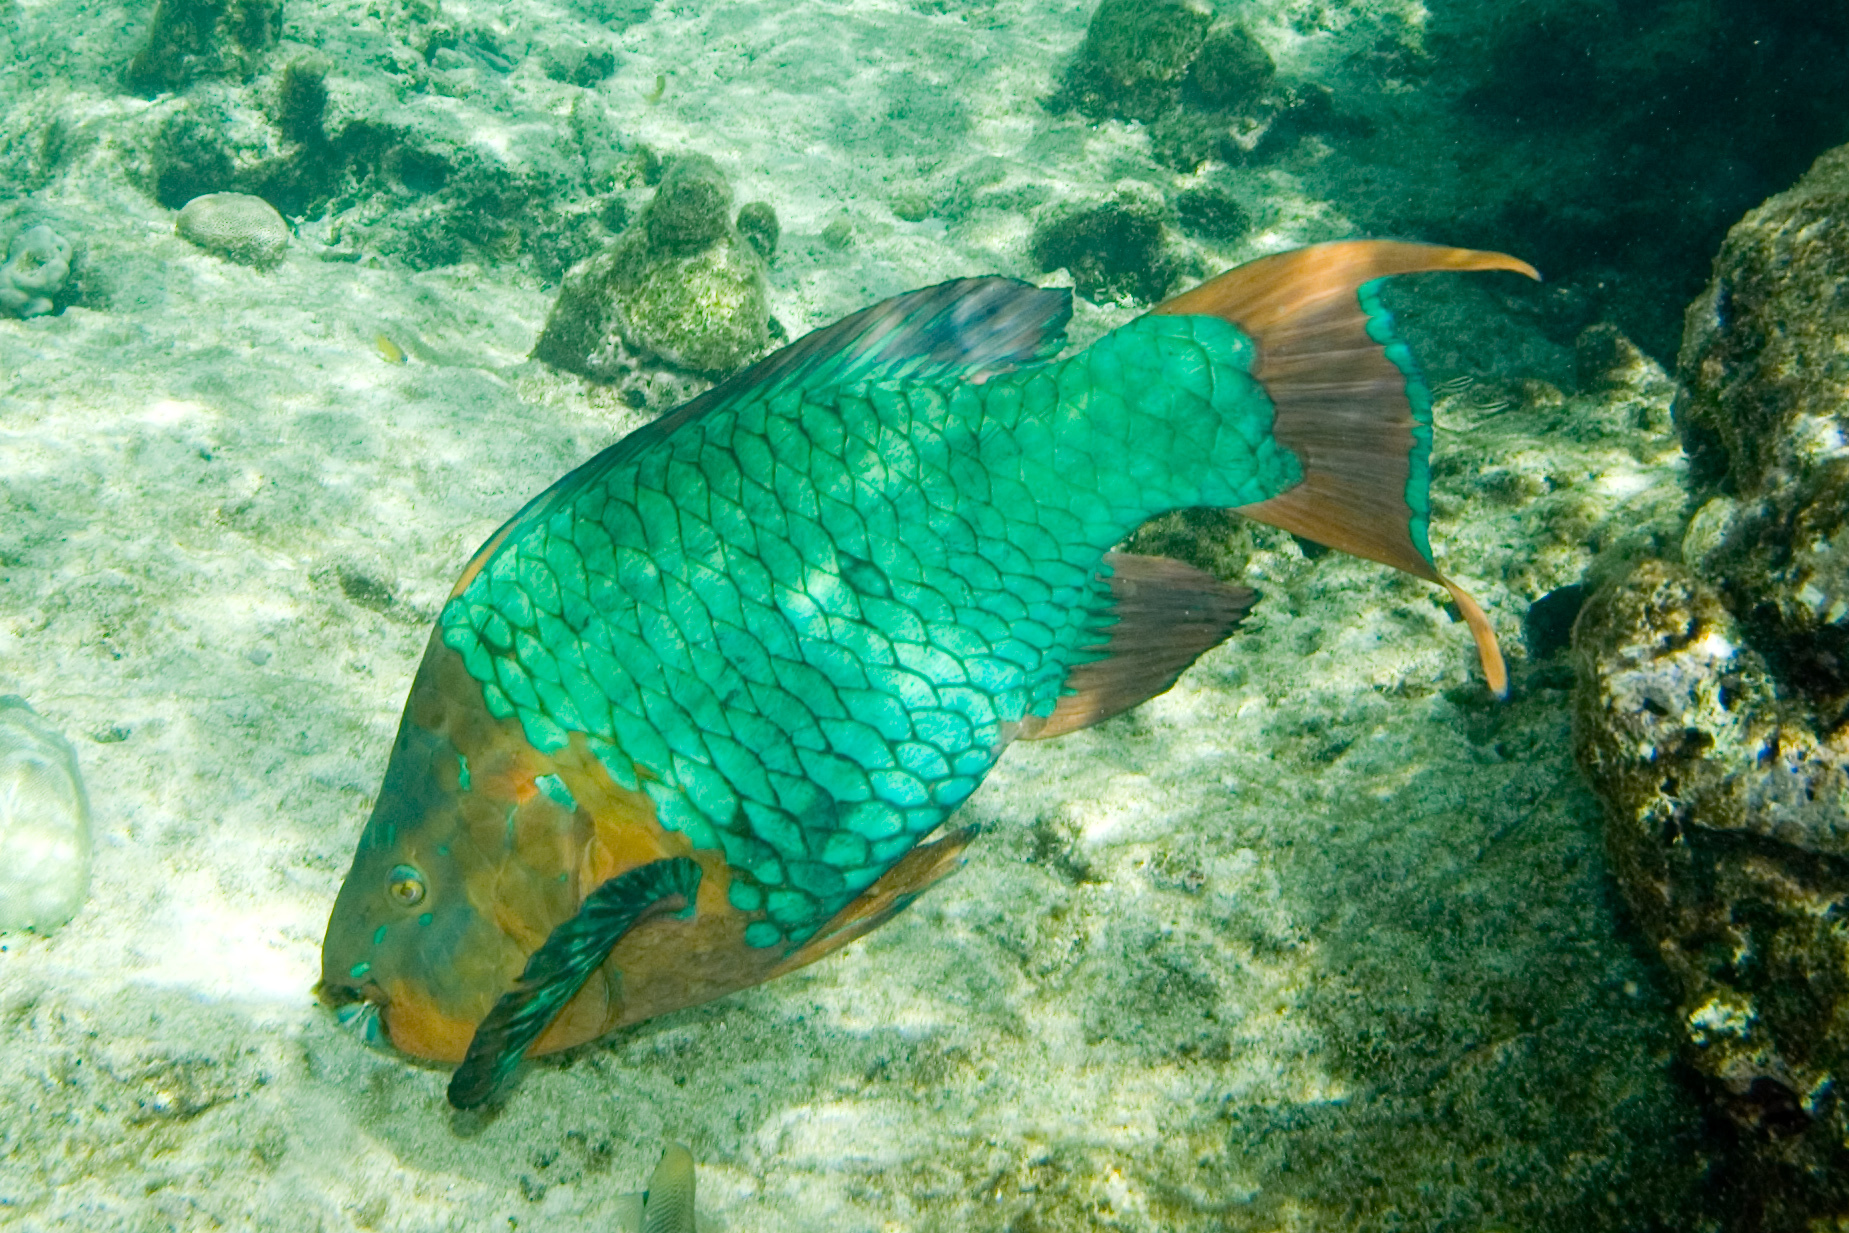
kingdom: Animalia
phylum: Chordata
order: Perciformes
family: Scaridae
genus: Scarus
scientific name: Scarus guacamaia
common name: Rainbow parrotfish
